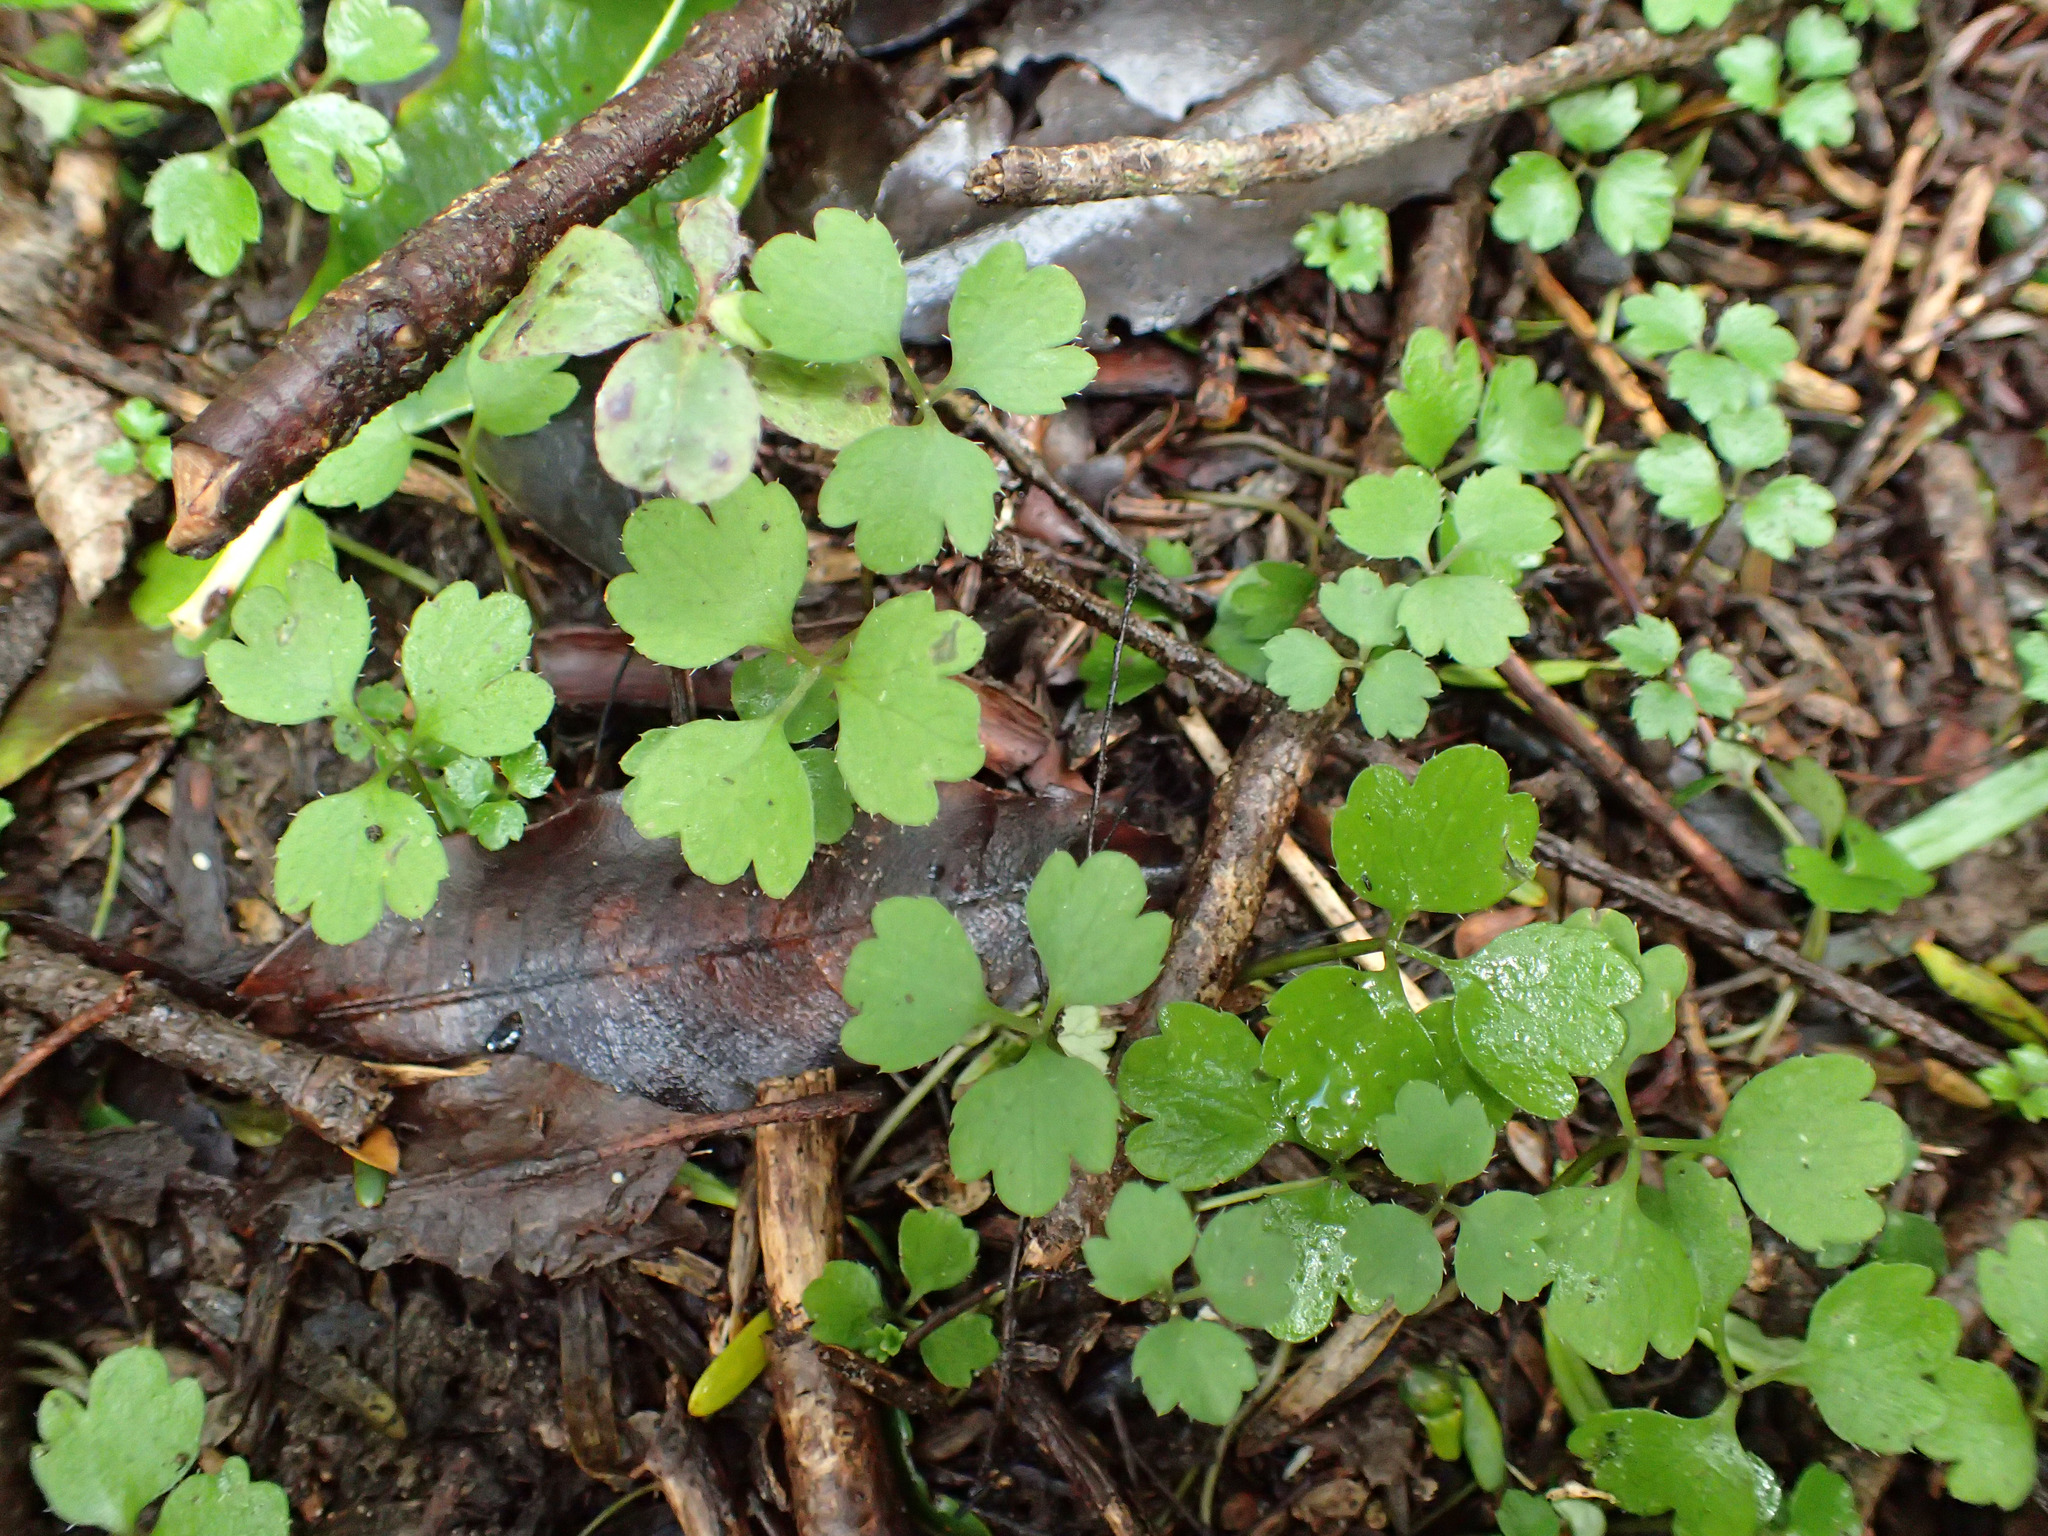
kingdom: Plantae
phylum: Tracheophyta
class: Magnoliopsida
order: Apiales
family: Apiaceae
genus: Azorella
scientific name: Azorella hookeri
